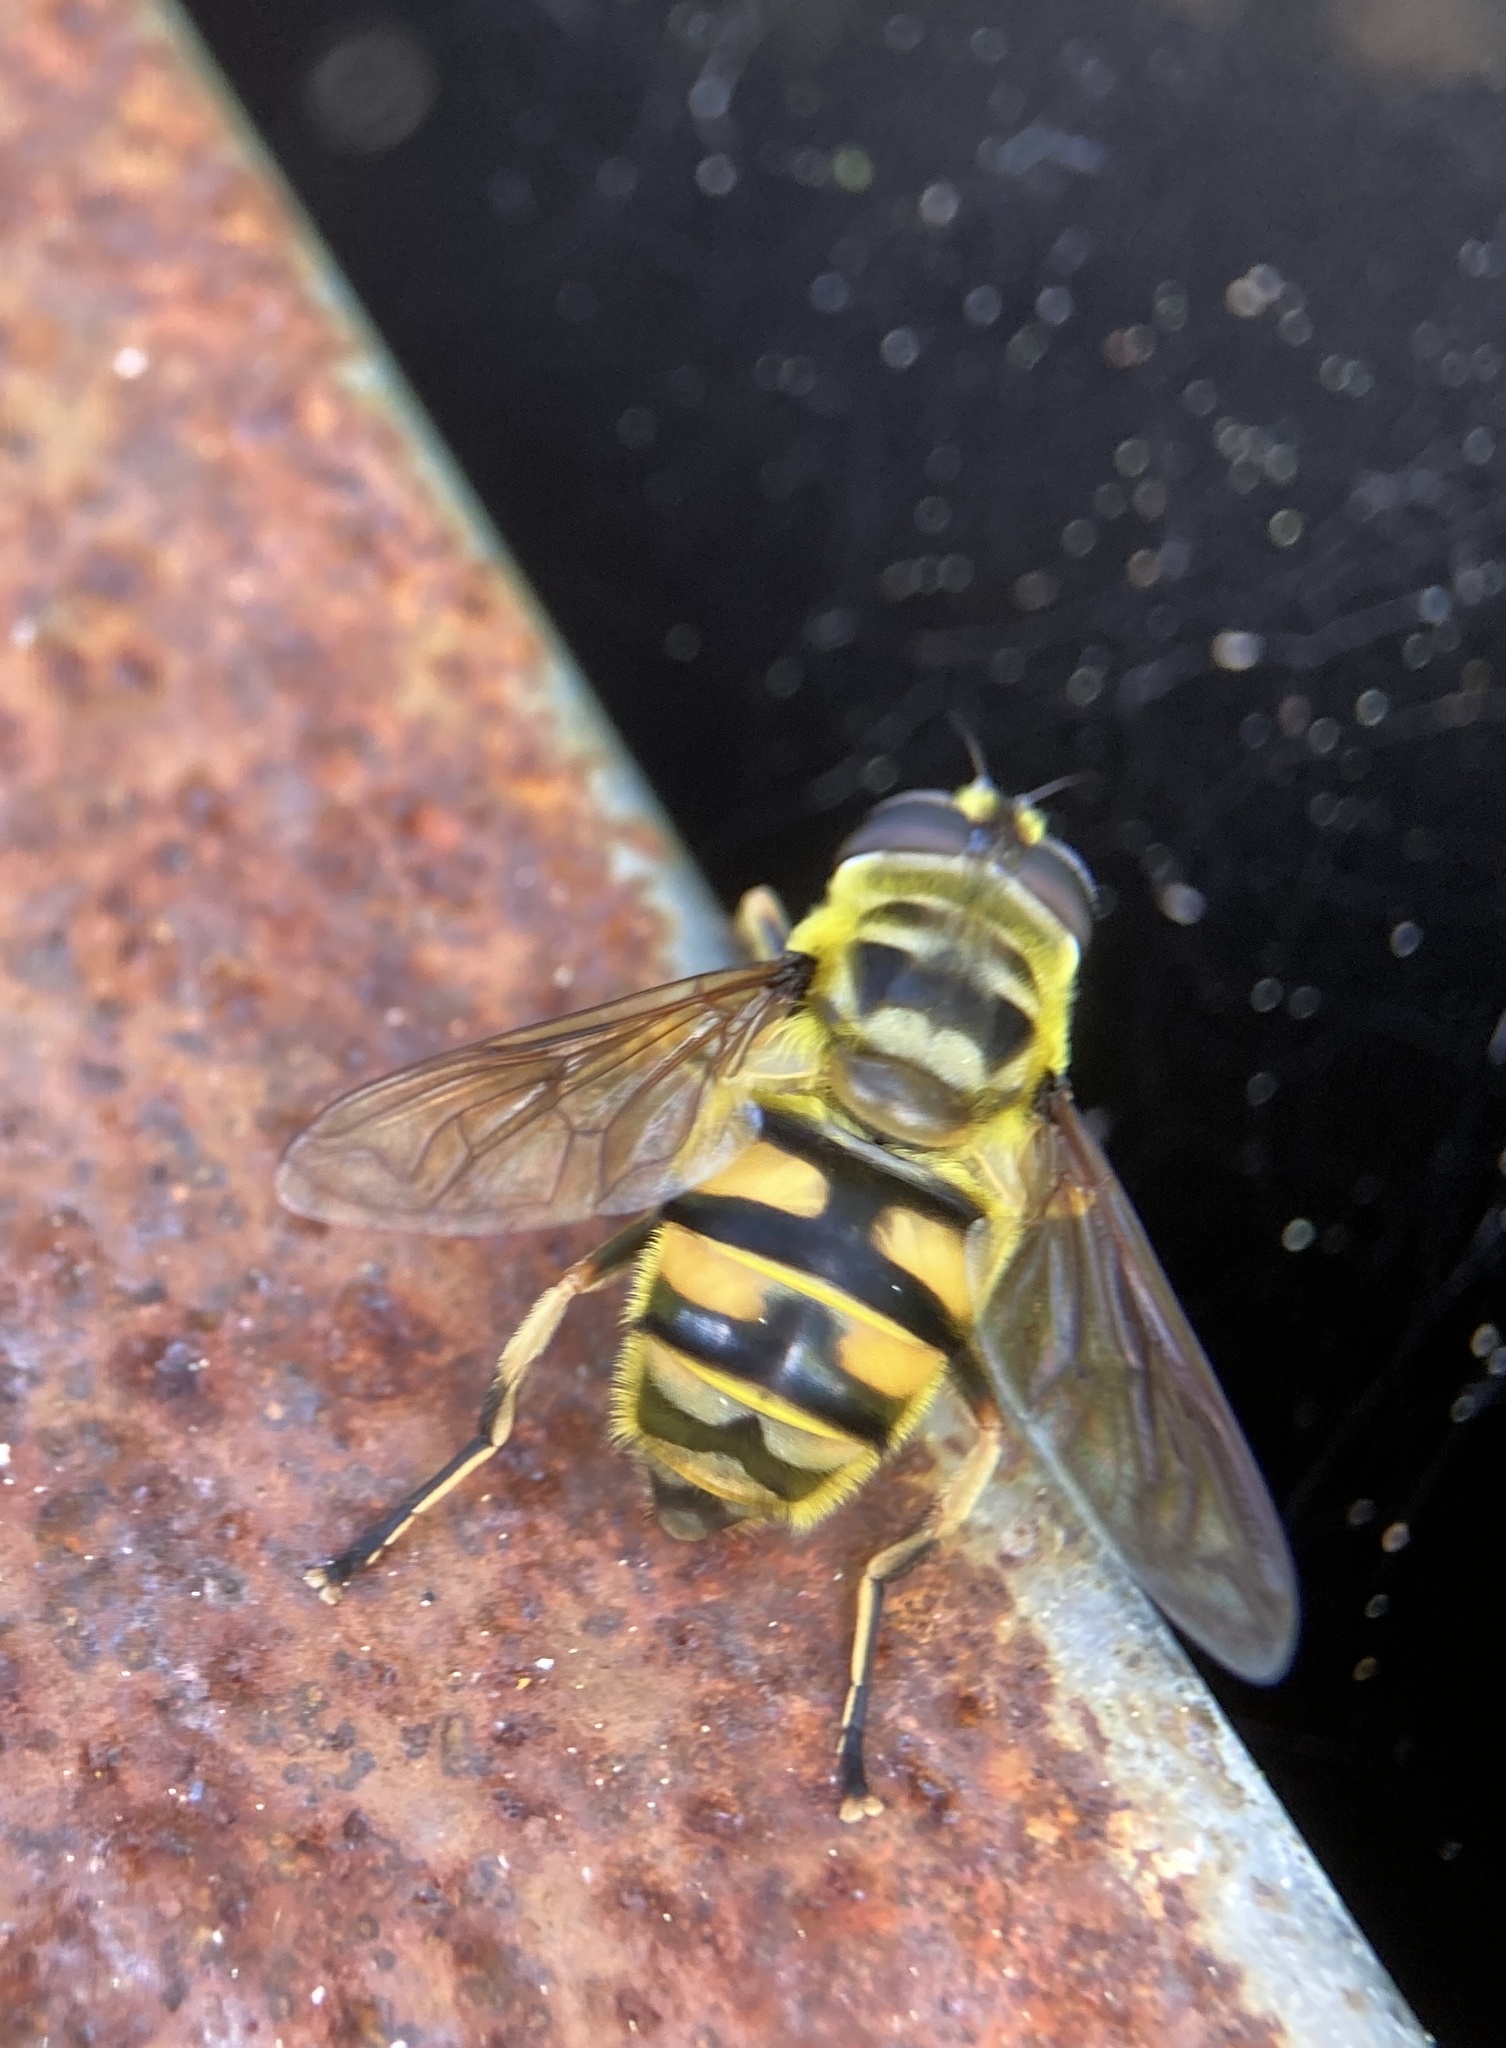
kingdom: Animalia
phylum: Arthropoda
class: Insecta
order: Diptera
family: Syrphidae
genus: Myathropa
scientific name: Myathropa florea
